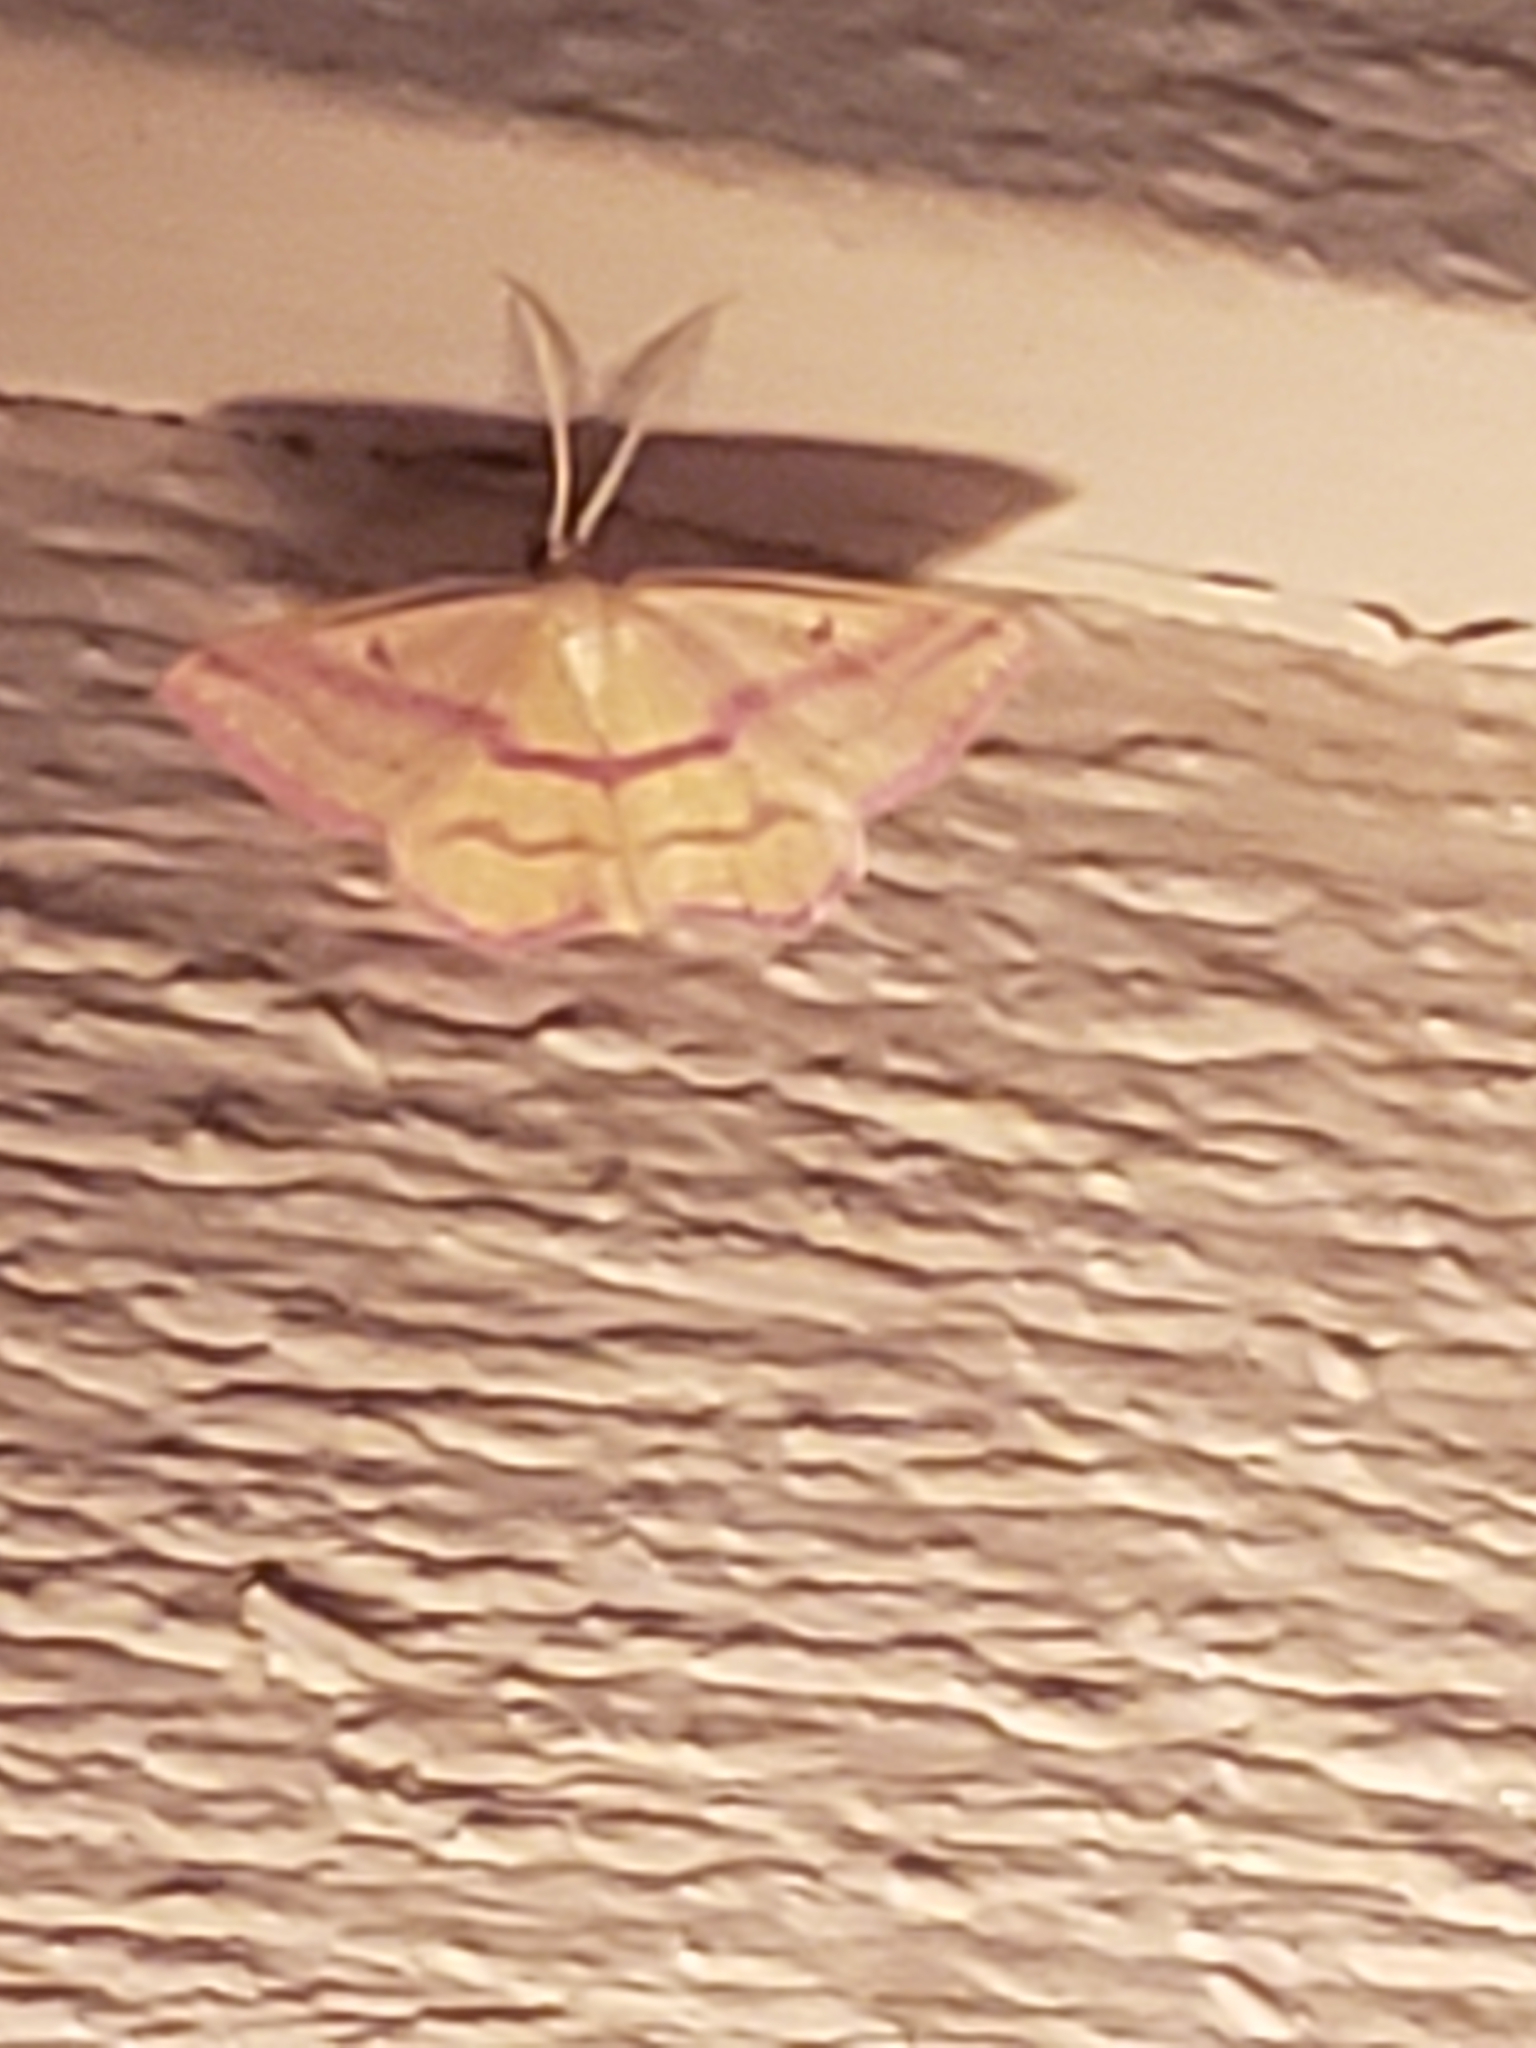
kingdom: Animalia
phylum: Arthropoda
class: Insecta
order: Lepidoptera
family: Geometridae
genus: Haematopis
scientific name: Haematopis grataria
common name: Chickweed geometer
